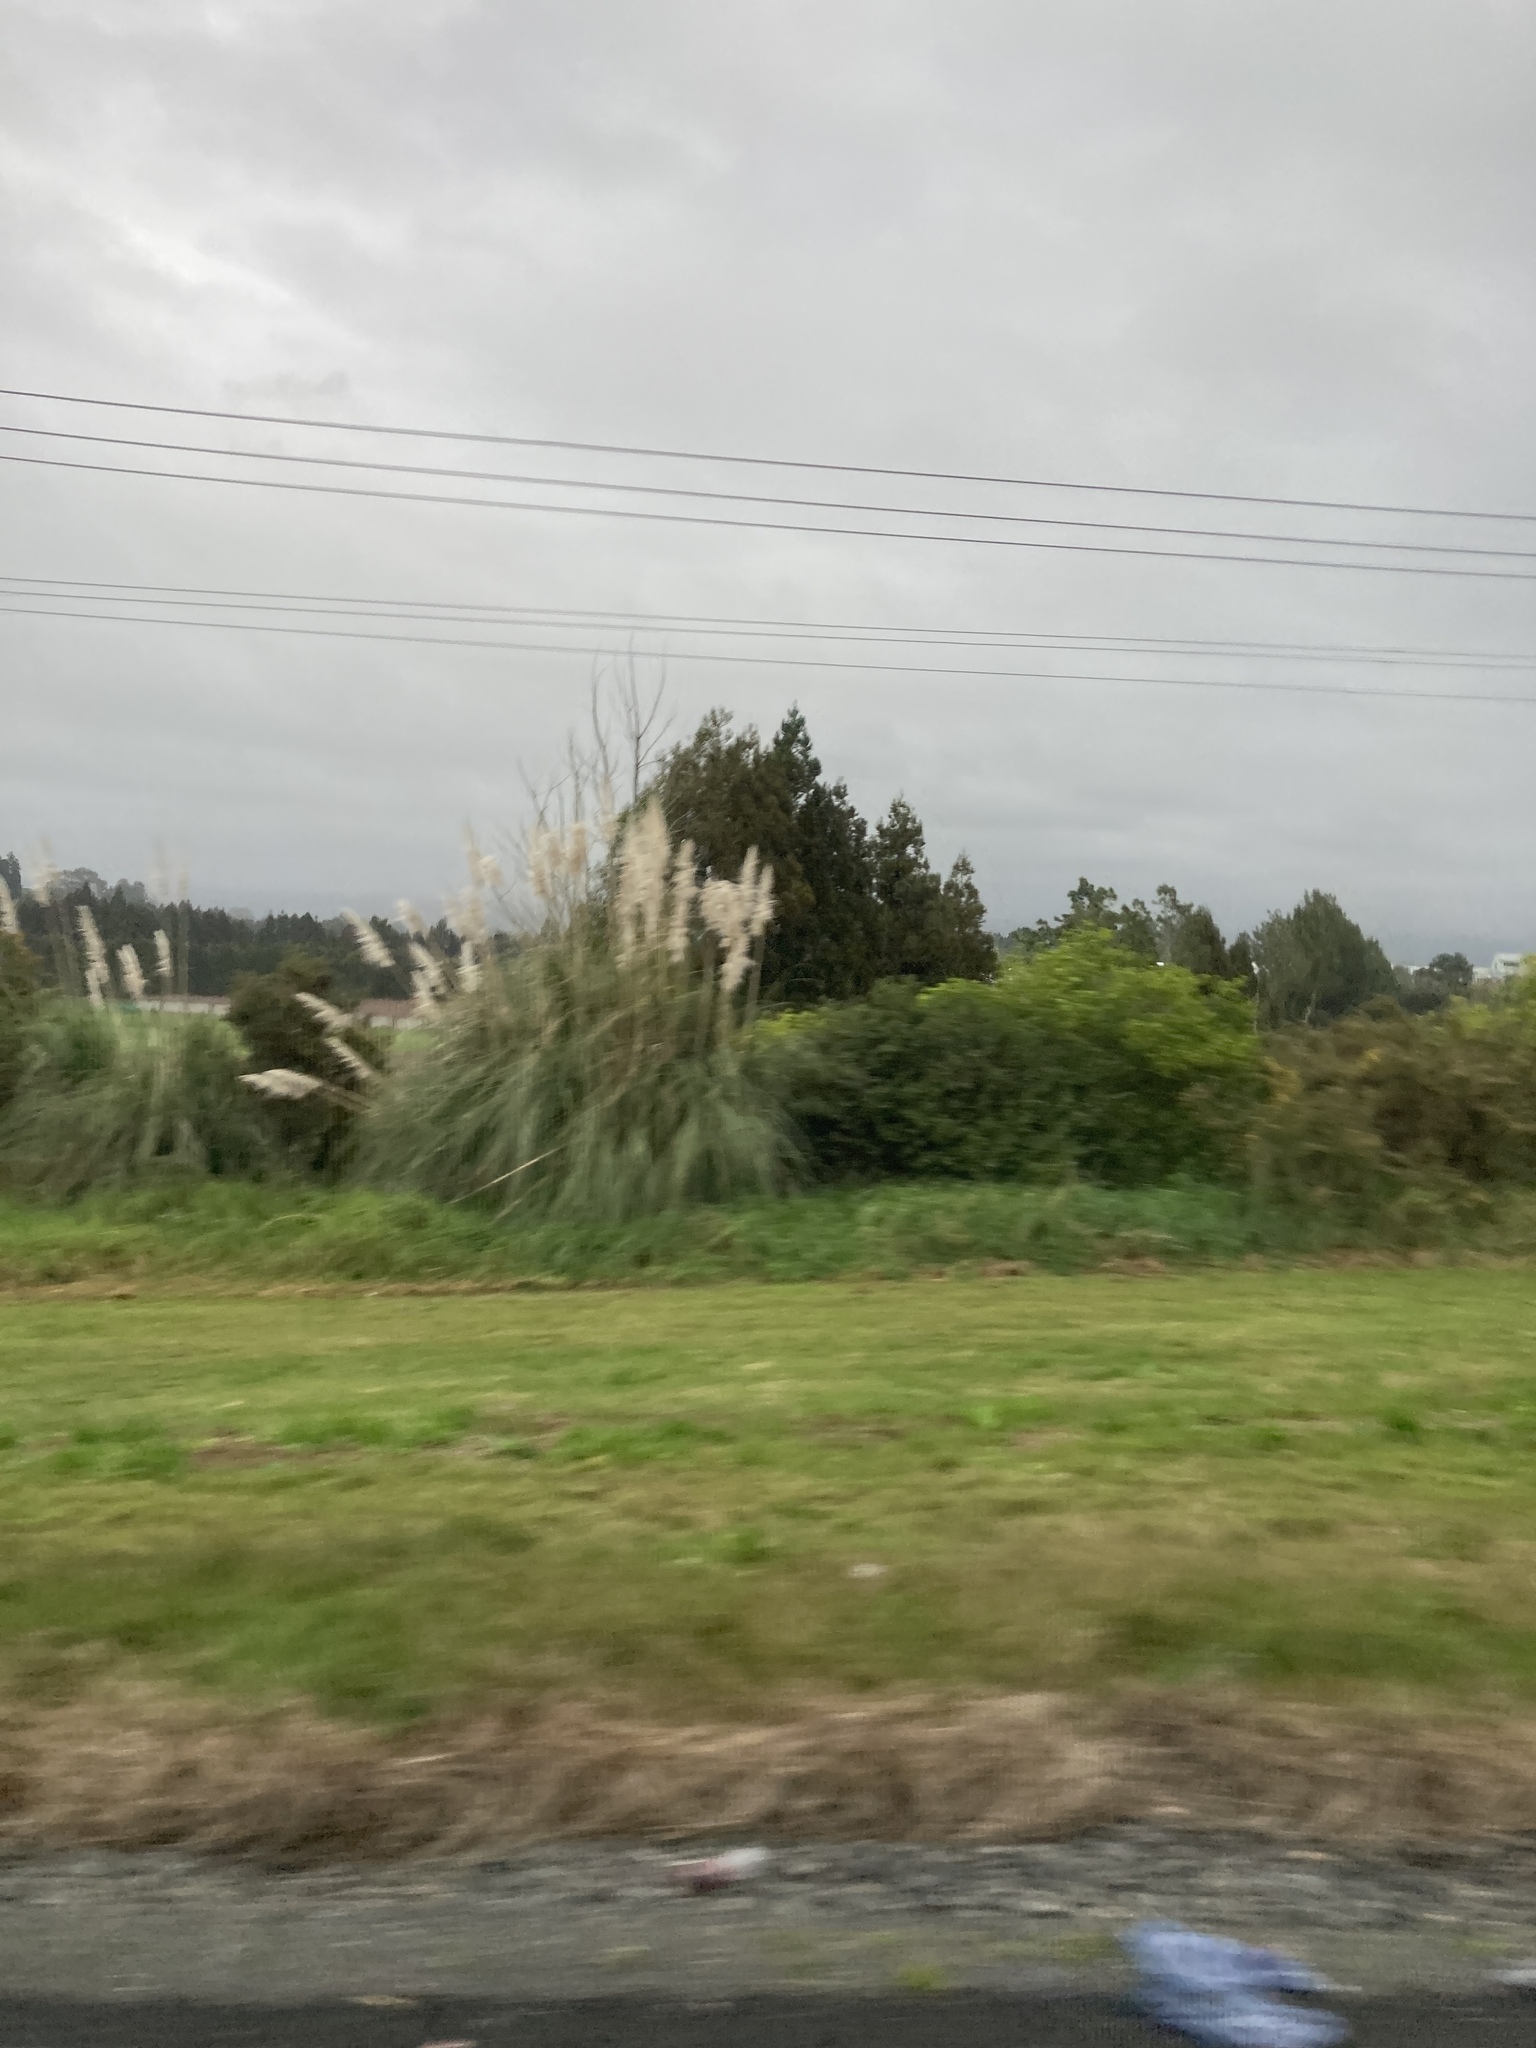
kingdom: Plantae
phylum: Tracheophyta
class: Liliopsida
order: Poales
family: Poaceae
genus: Cortaderia
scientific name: Cortaderia selloana
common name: Uruguayan pampas grass
